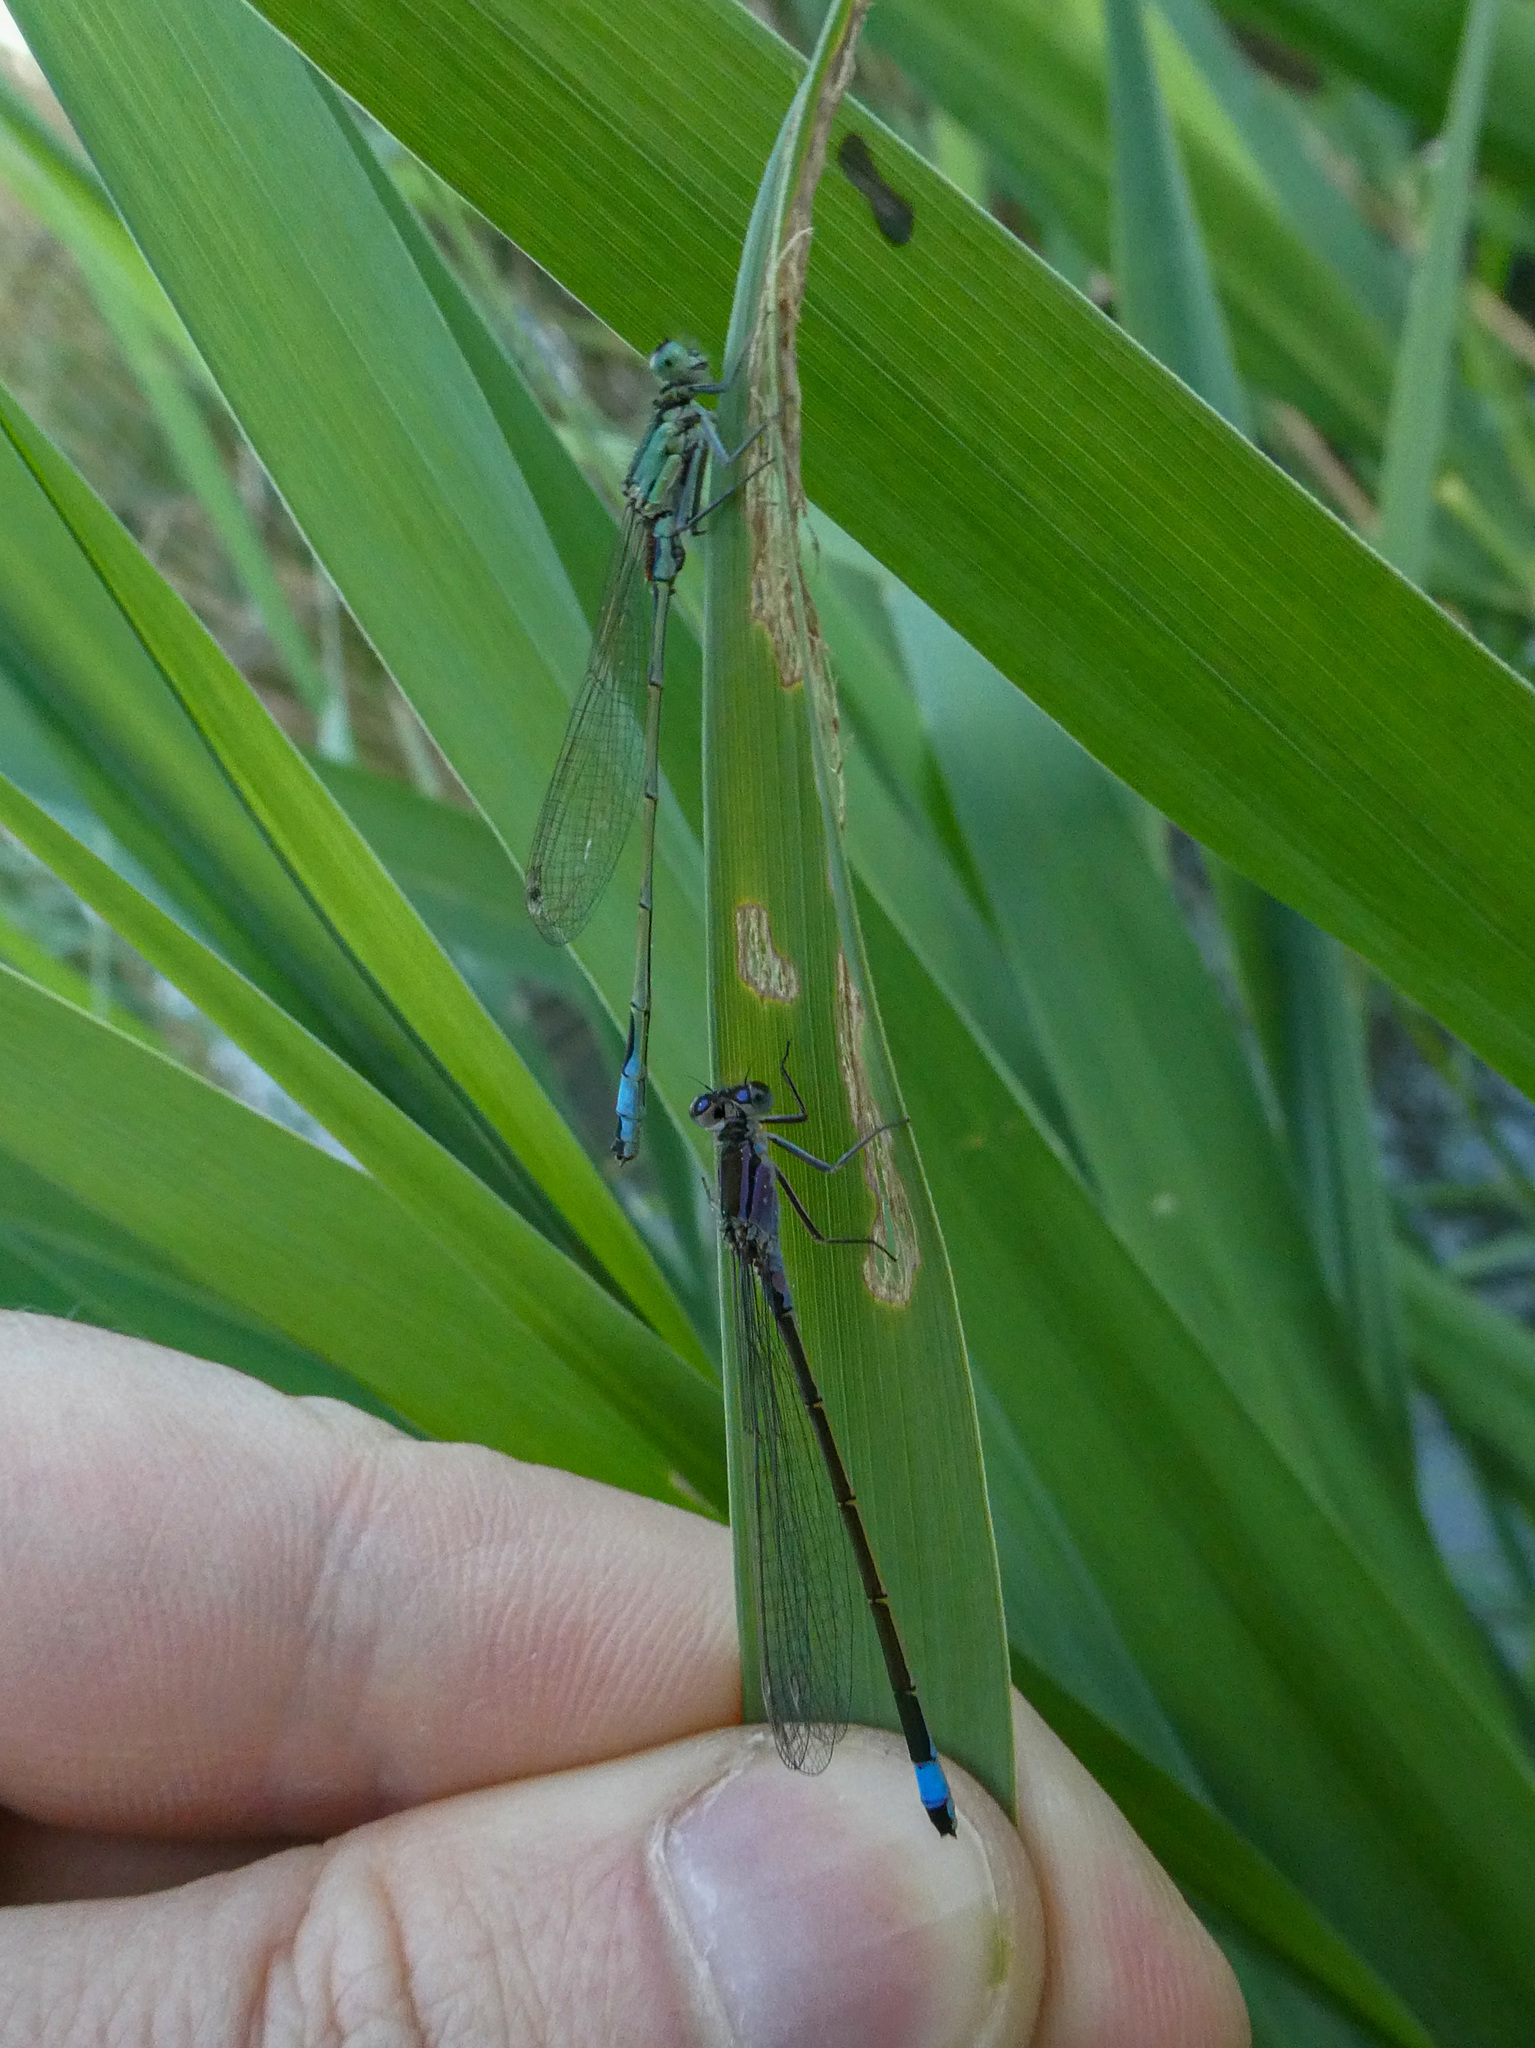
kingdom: Animalia
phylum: Arthropoda
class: Insecta
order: Odonata
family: Coenagrionidae
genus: Ischnura
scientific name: Ischnura elegans
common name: Blue-tailed damselfly
